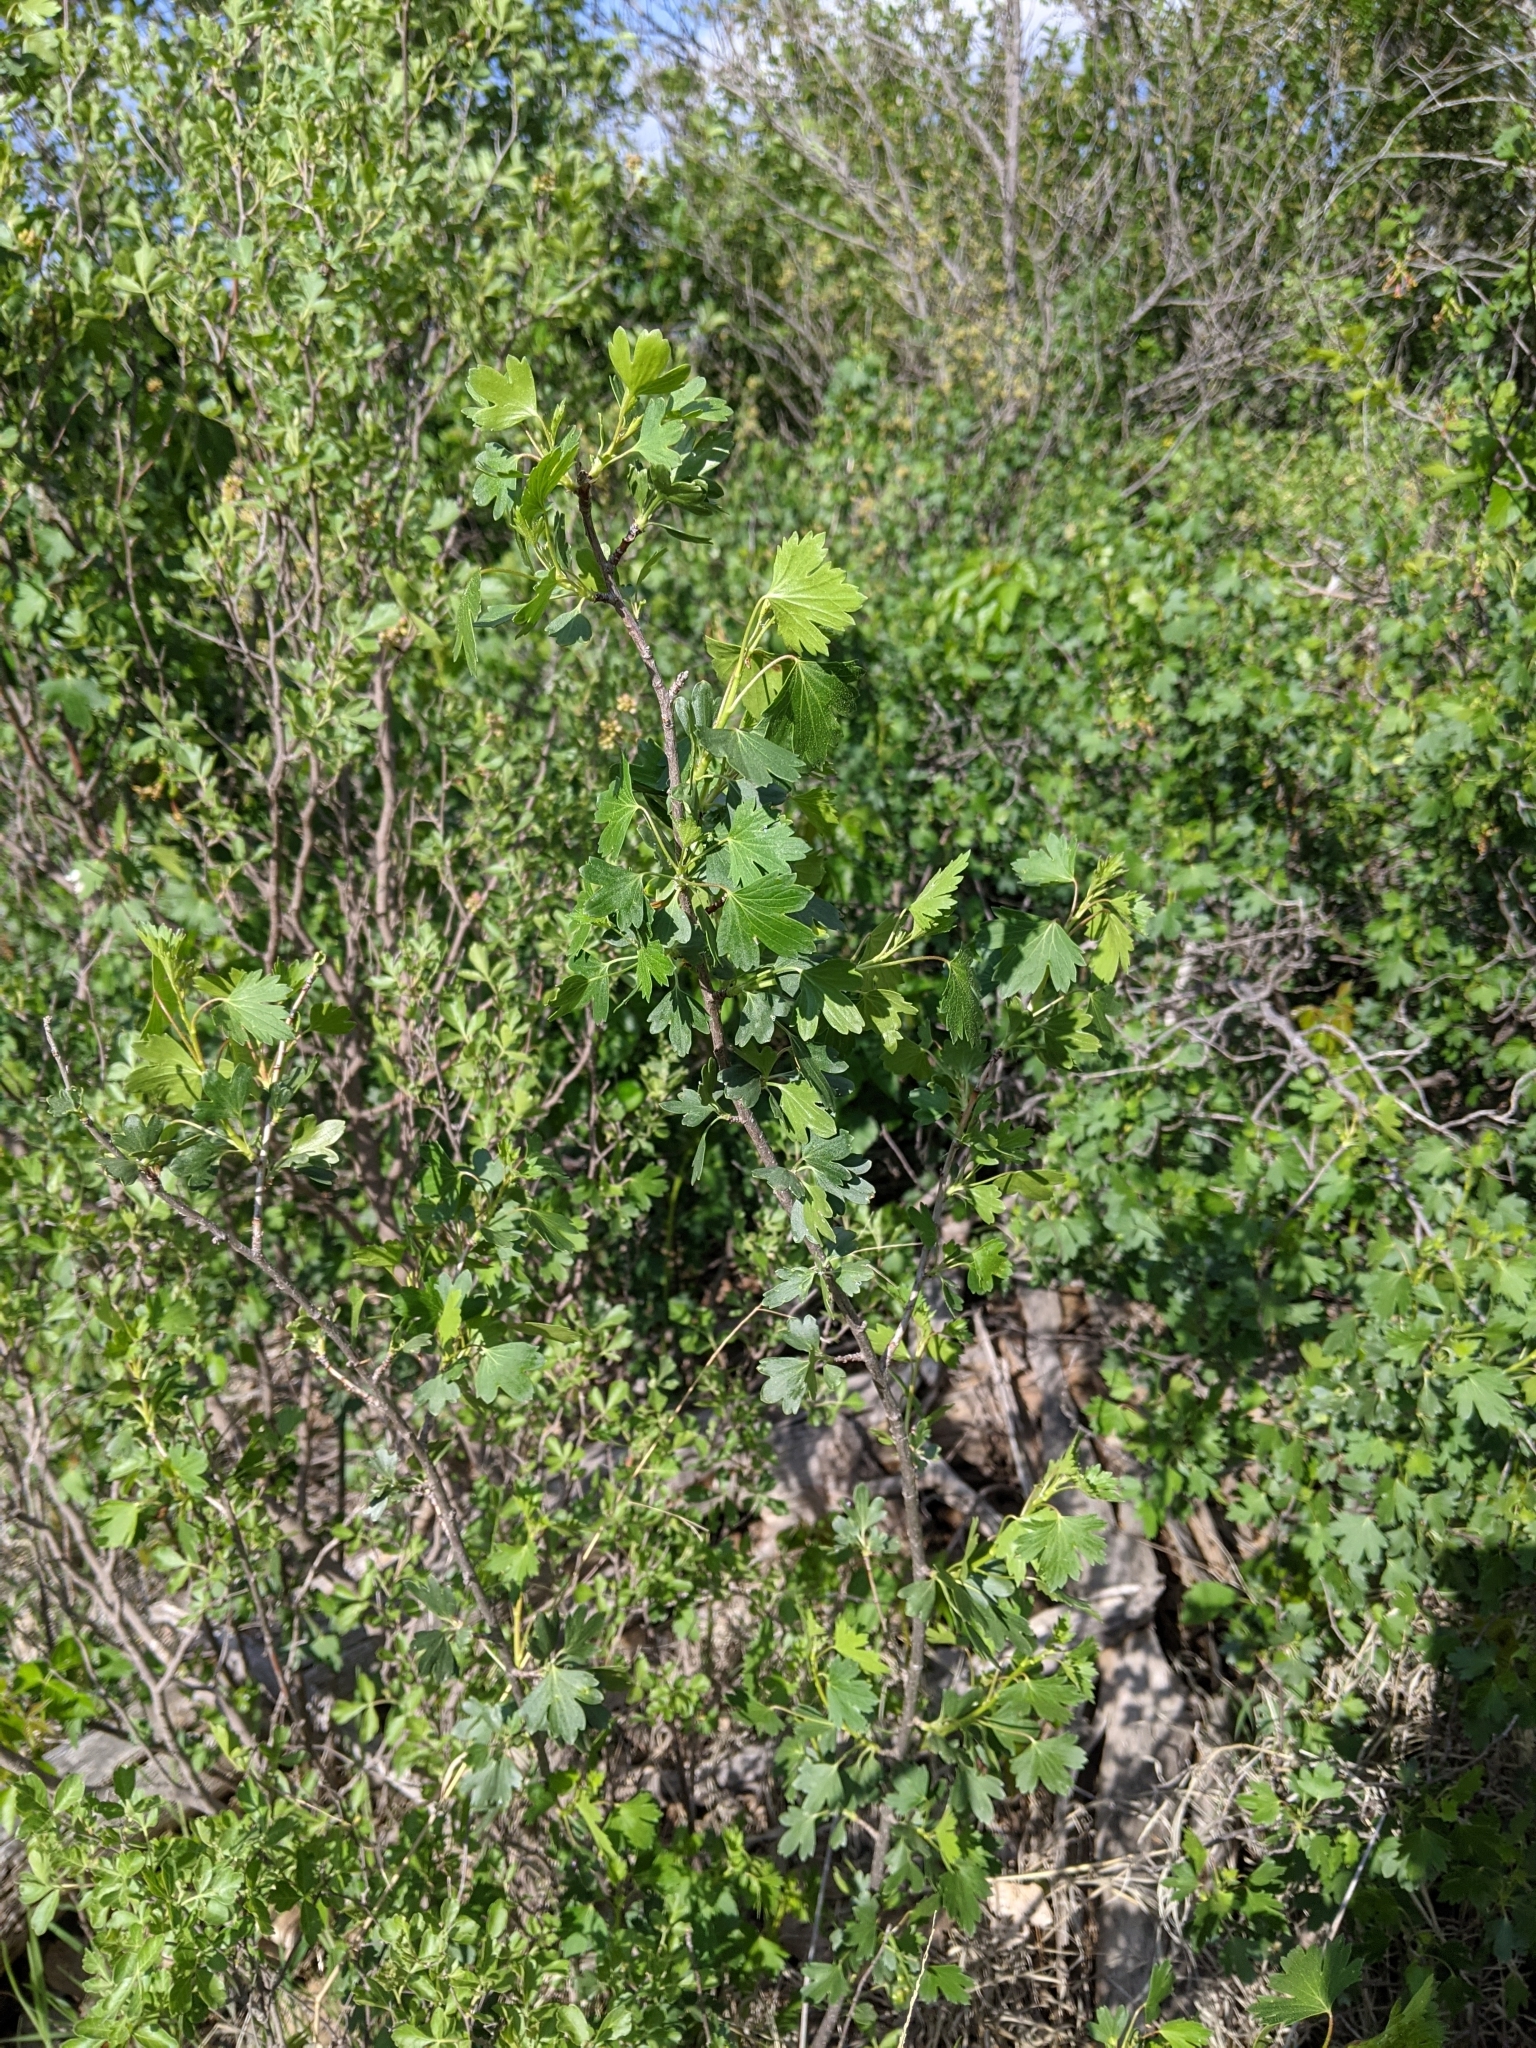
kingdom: Plantae
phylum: Tracheophyta
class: Magnoliopsida
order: Saxifragales
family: Grossulariaceae
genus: Ribes
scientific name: Ribes aureum
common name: Golden currant
